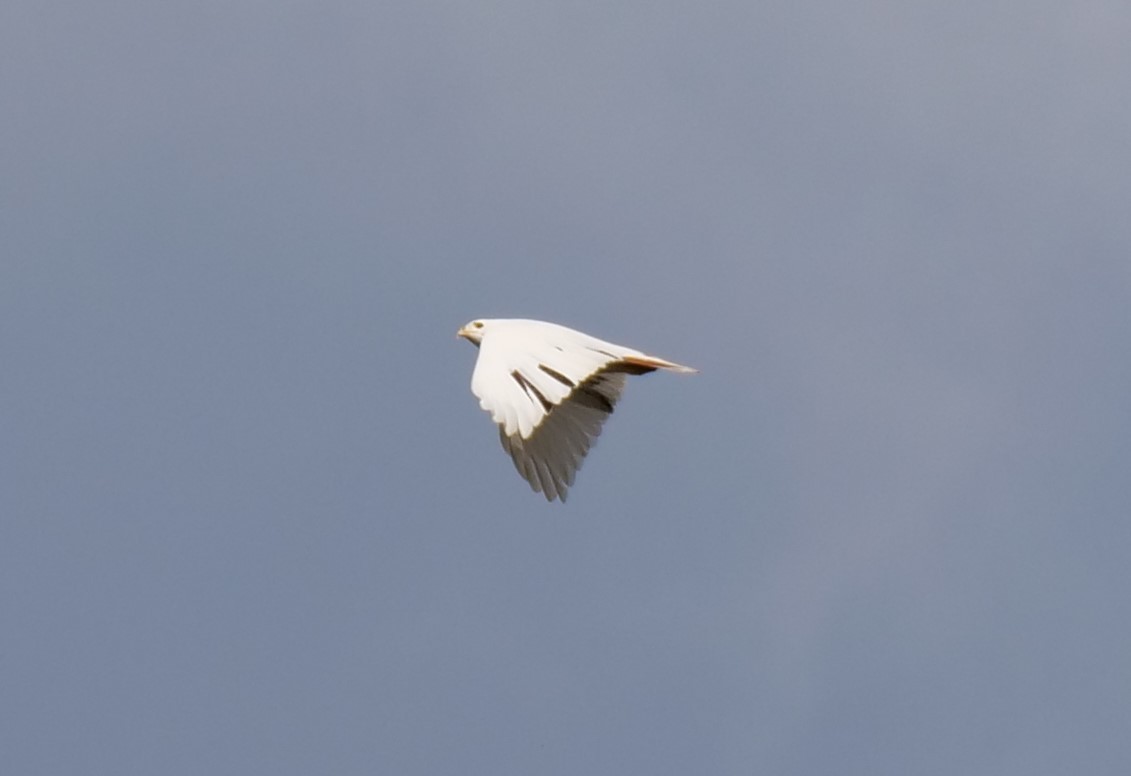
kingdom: Animalia
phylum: Chordata
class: Aves
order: Accipitriformes
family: Accipitridae
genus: Buteo
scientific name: Buteo jamaicensis
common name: Red-tailed hawk
